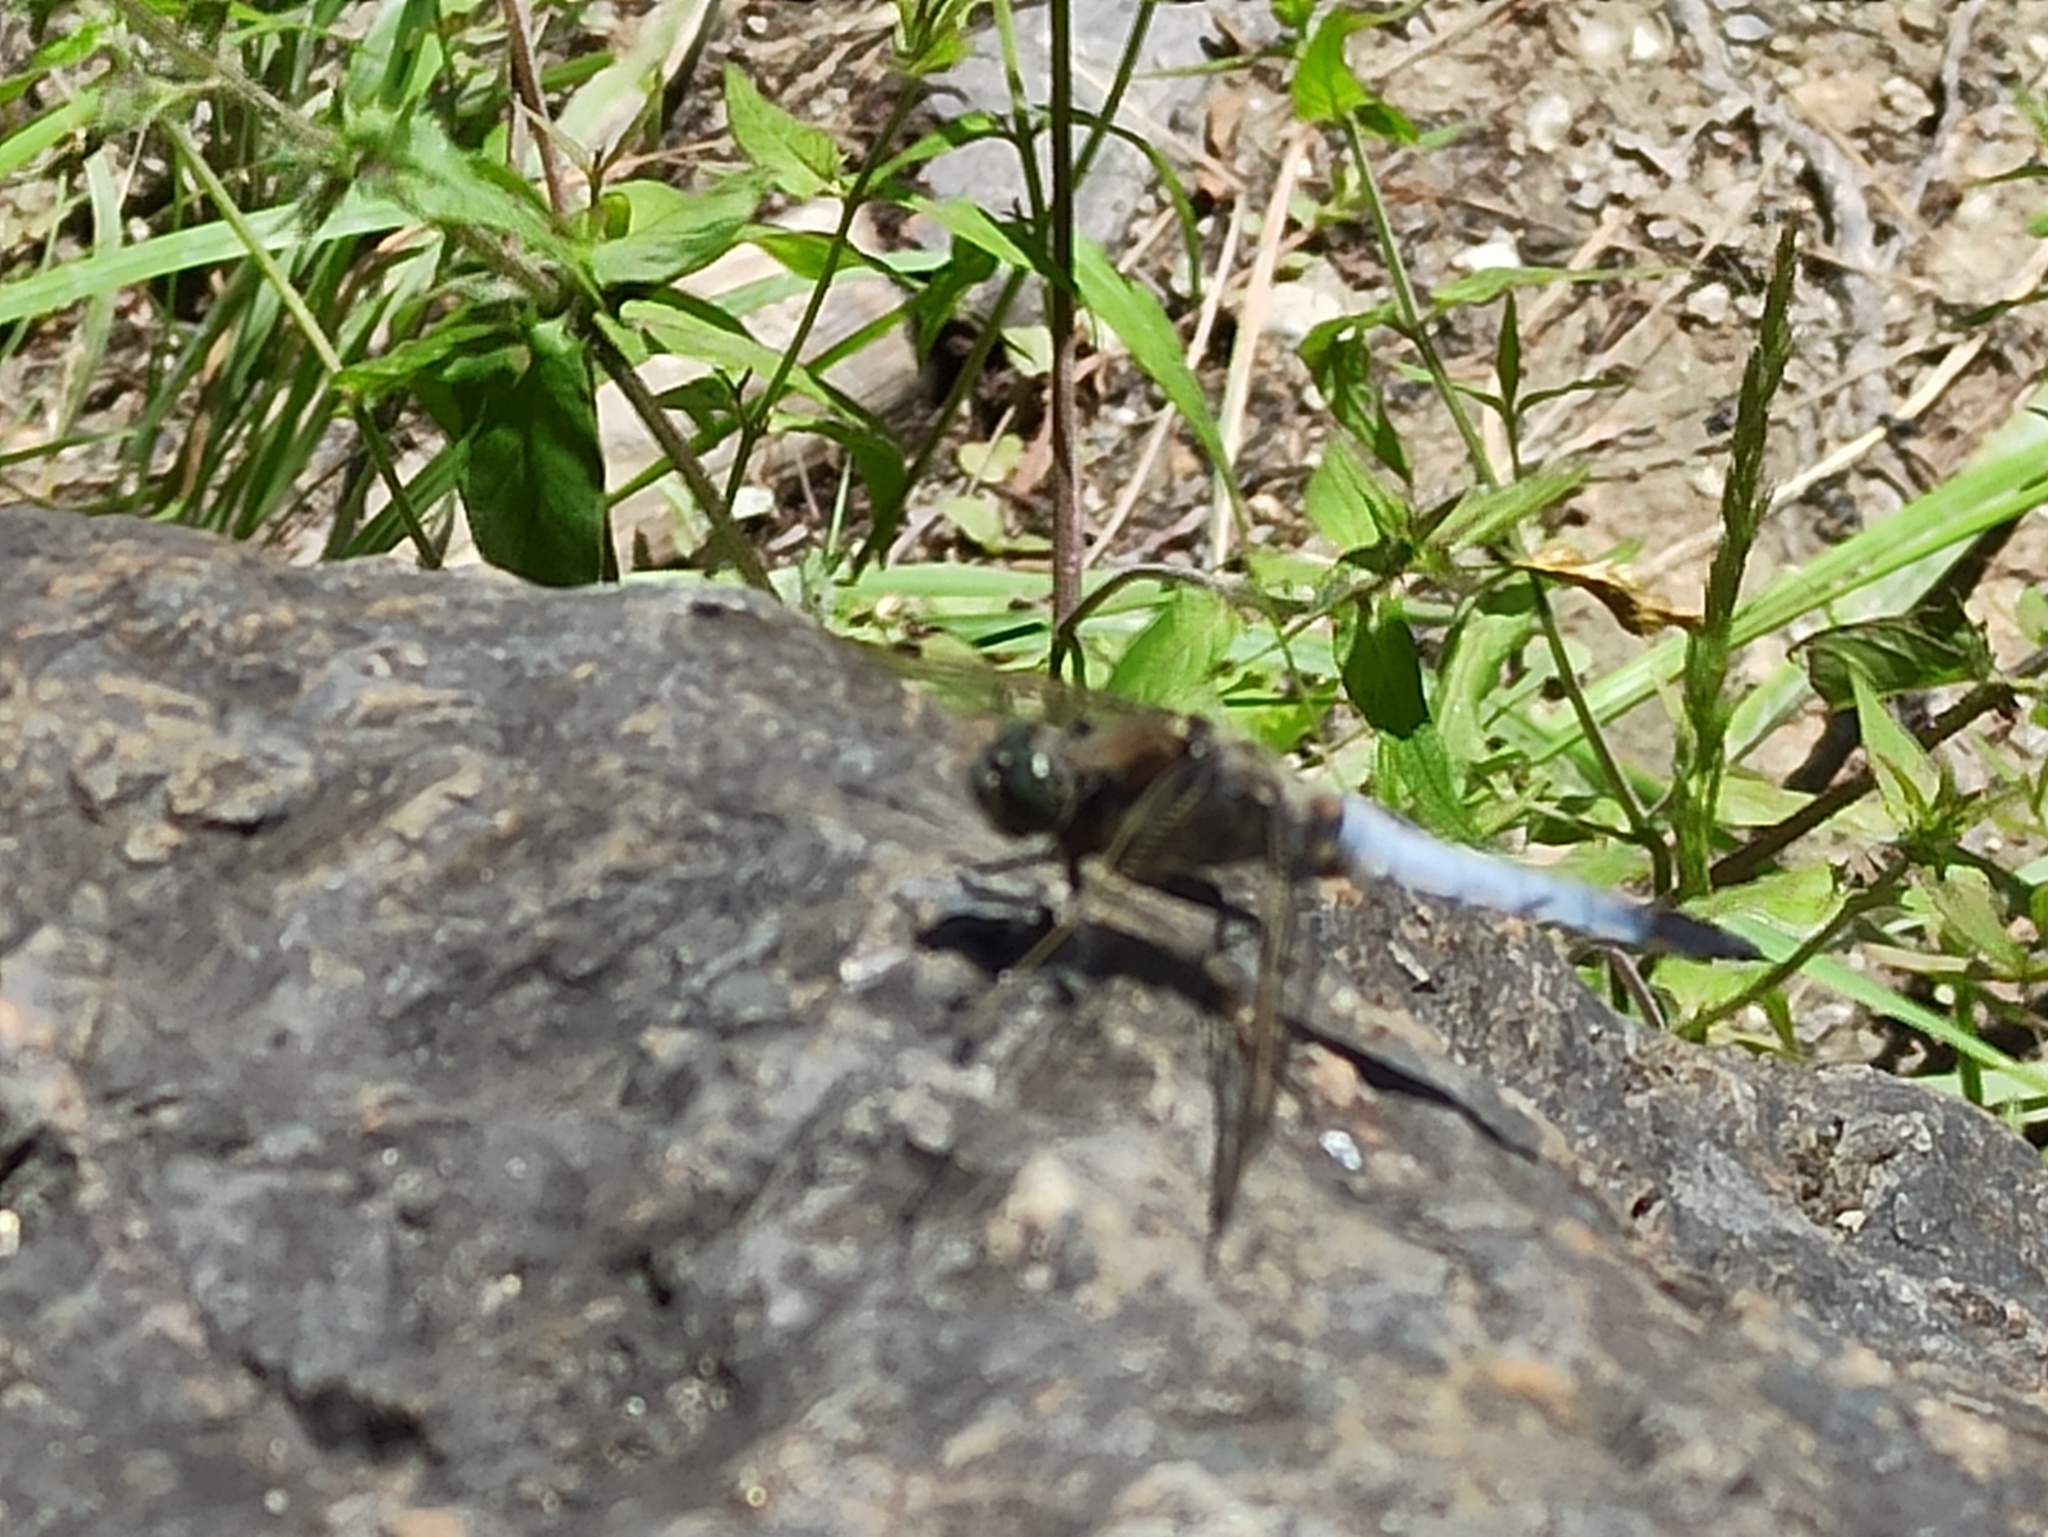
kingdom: Animalia
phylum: Arthropoda
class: Insecta
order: Odonata
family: Libellulidae
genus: Orthetrum
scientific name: Orthetrum cancellatum
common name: Black-tailed skimmer
